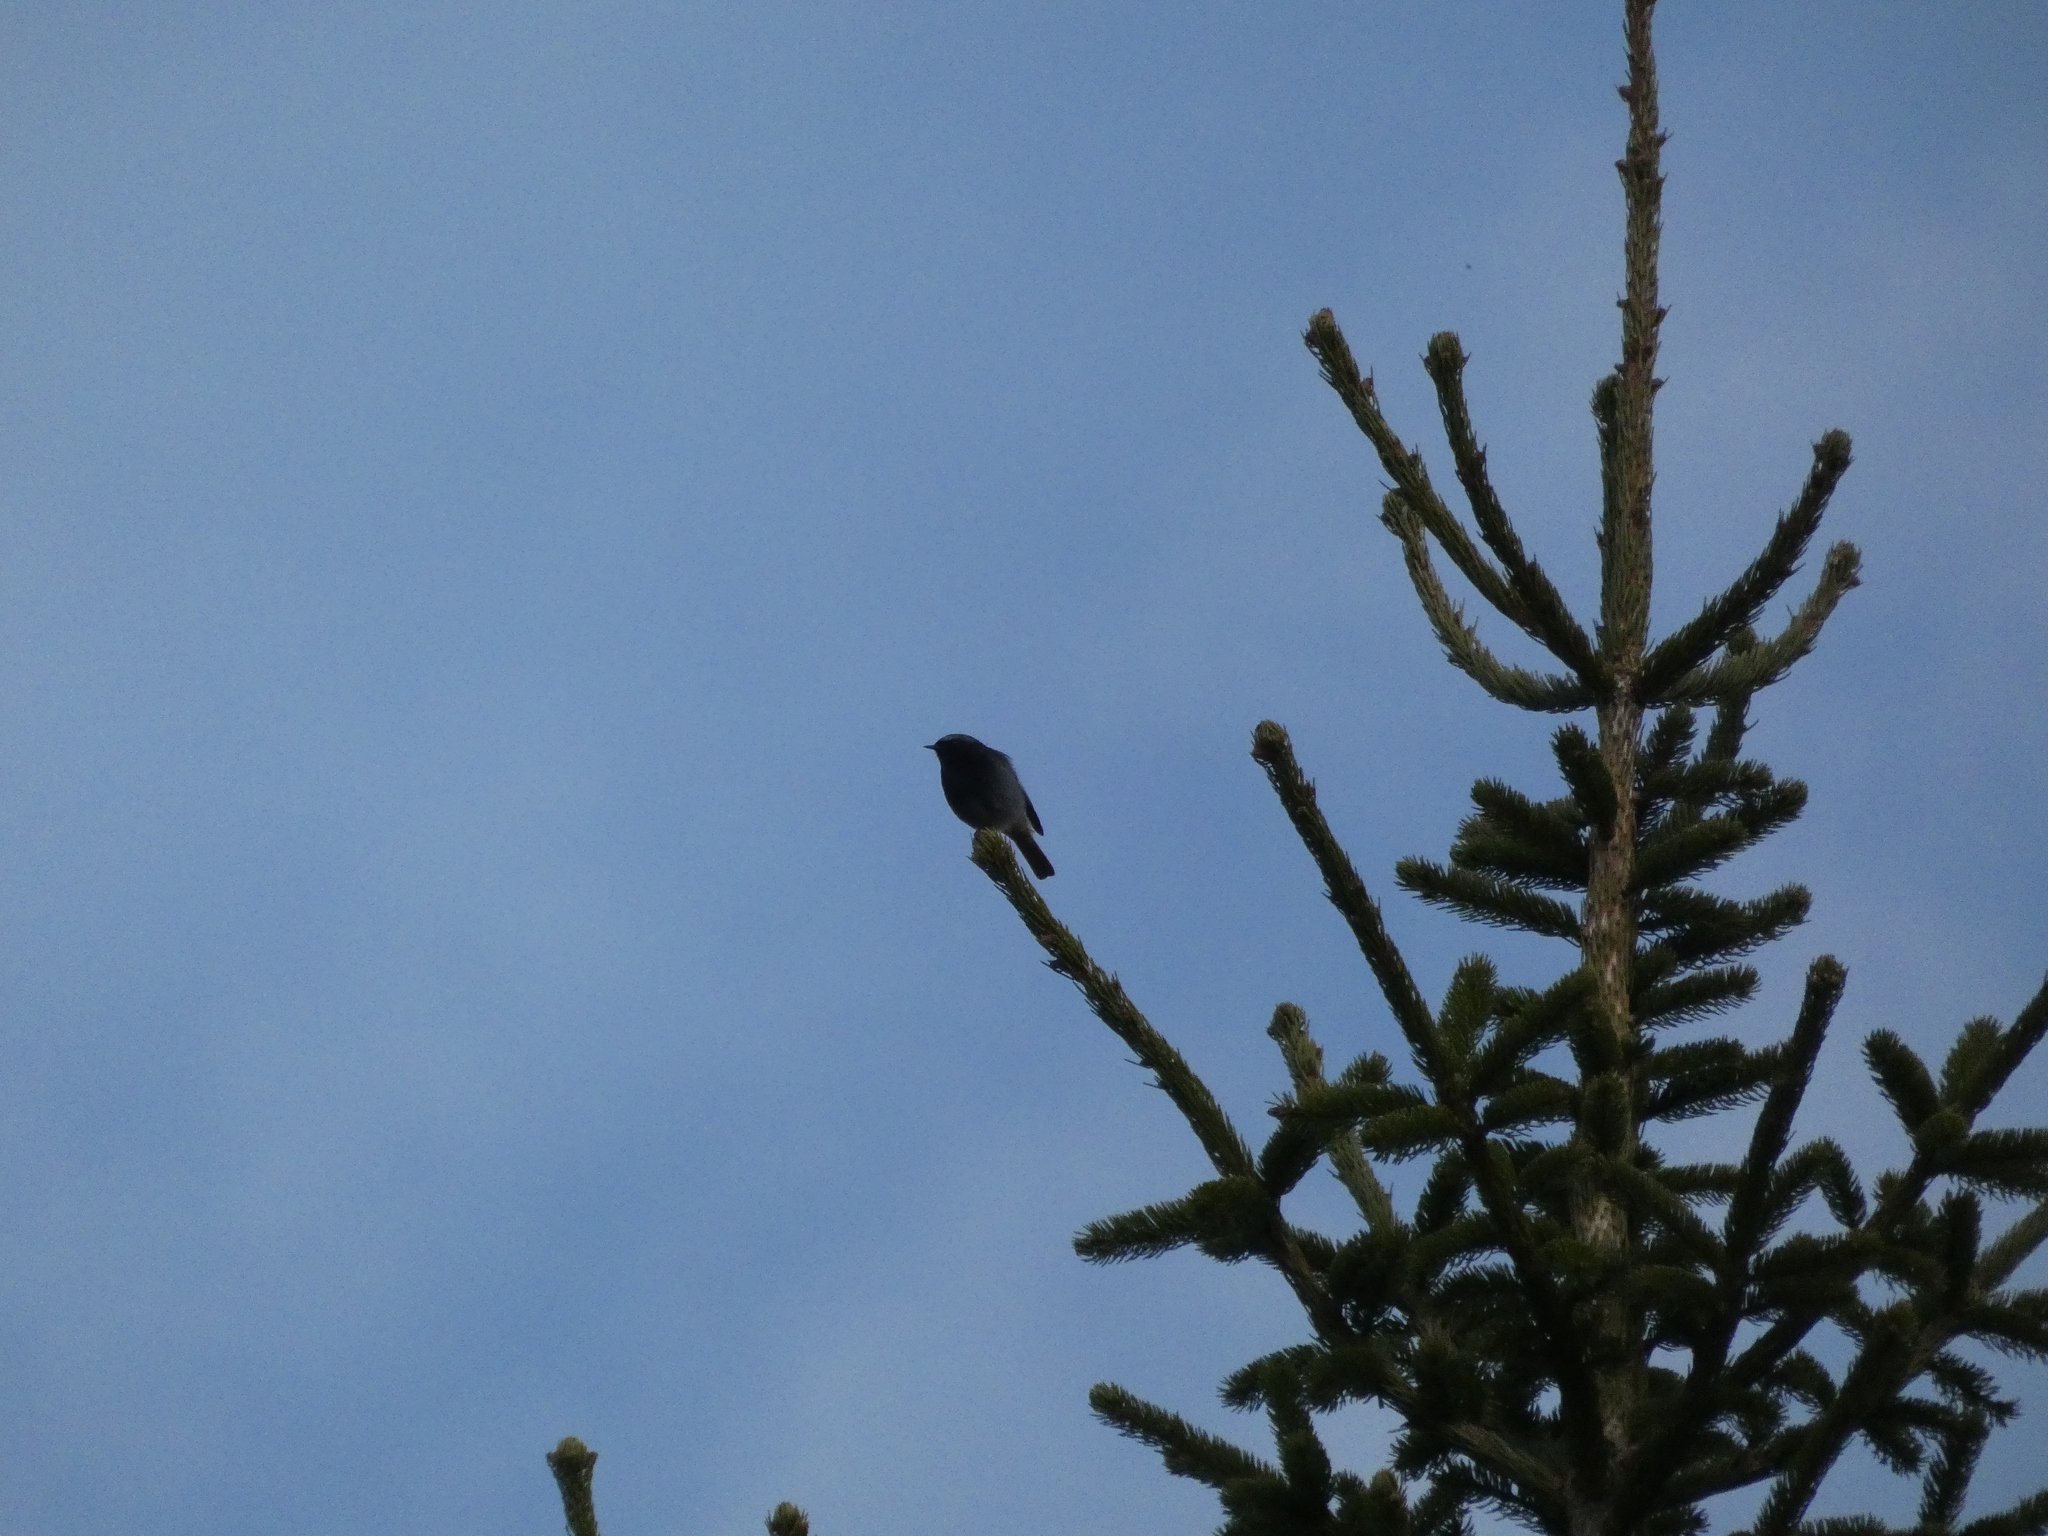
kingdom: Animalia
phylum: Chordata
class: Aves
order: Passeriformes
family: Muscicapidae
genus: Phoenicurus
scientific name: Phoenicurus ochruros
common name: Black redstart
